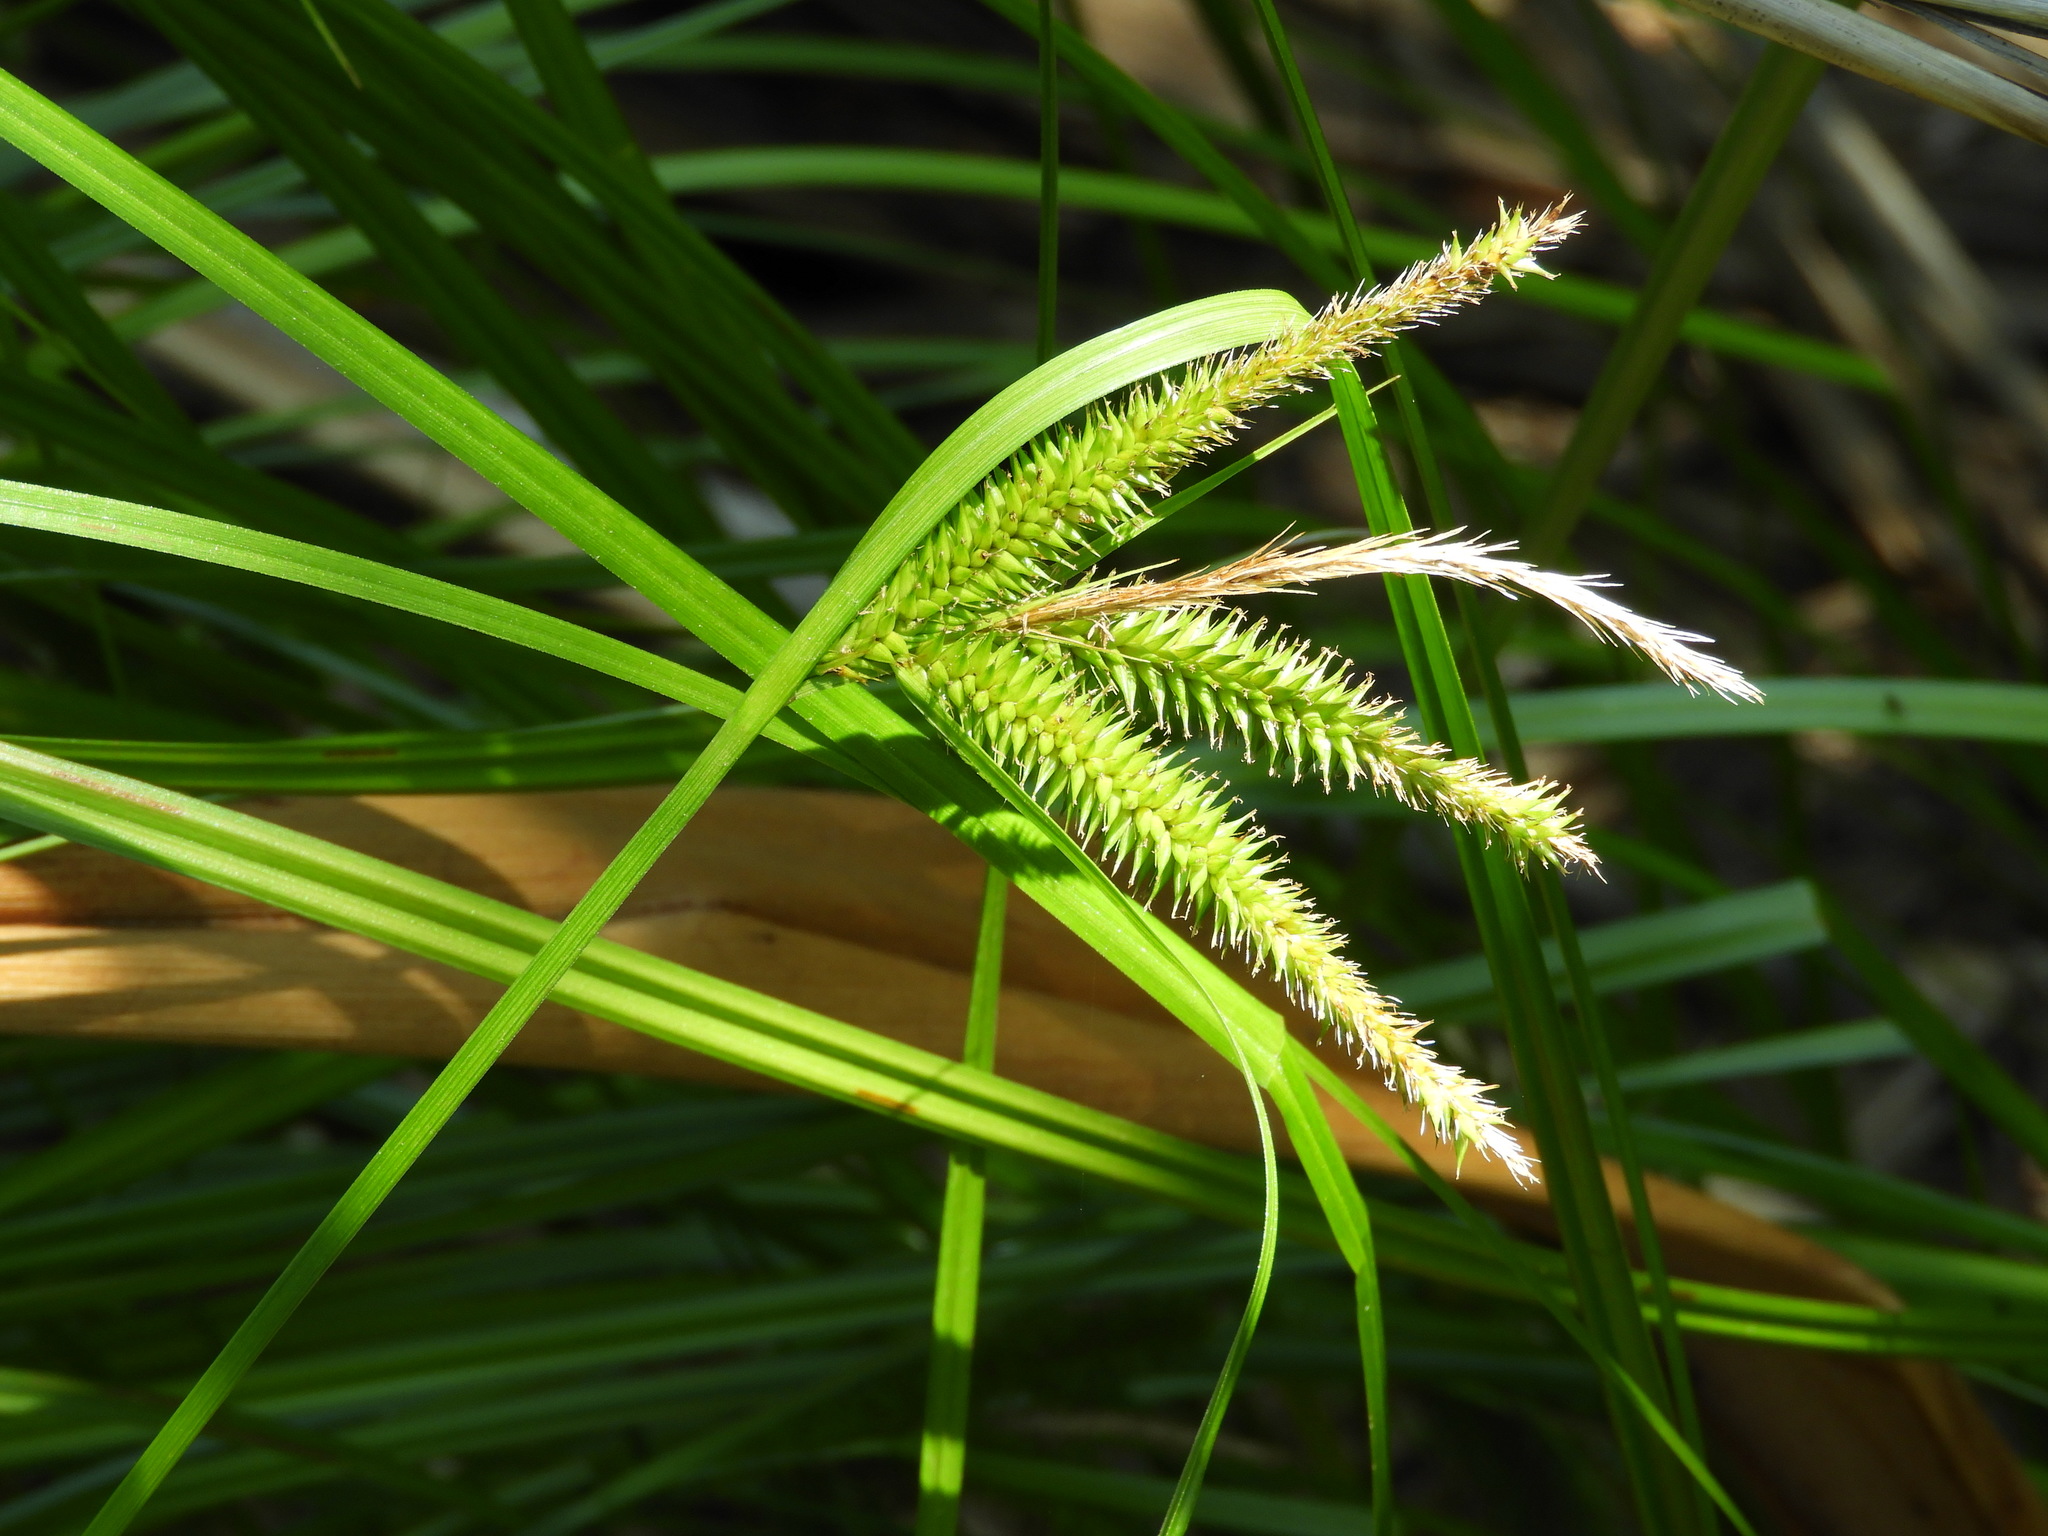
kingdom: Plantae
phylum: Tracheophyta
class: Liliopsida
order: Poales
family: Cyperaceae
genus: Carex
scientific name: Carex maorica
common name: Maori sedge
